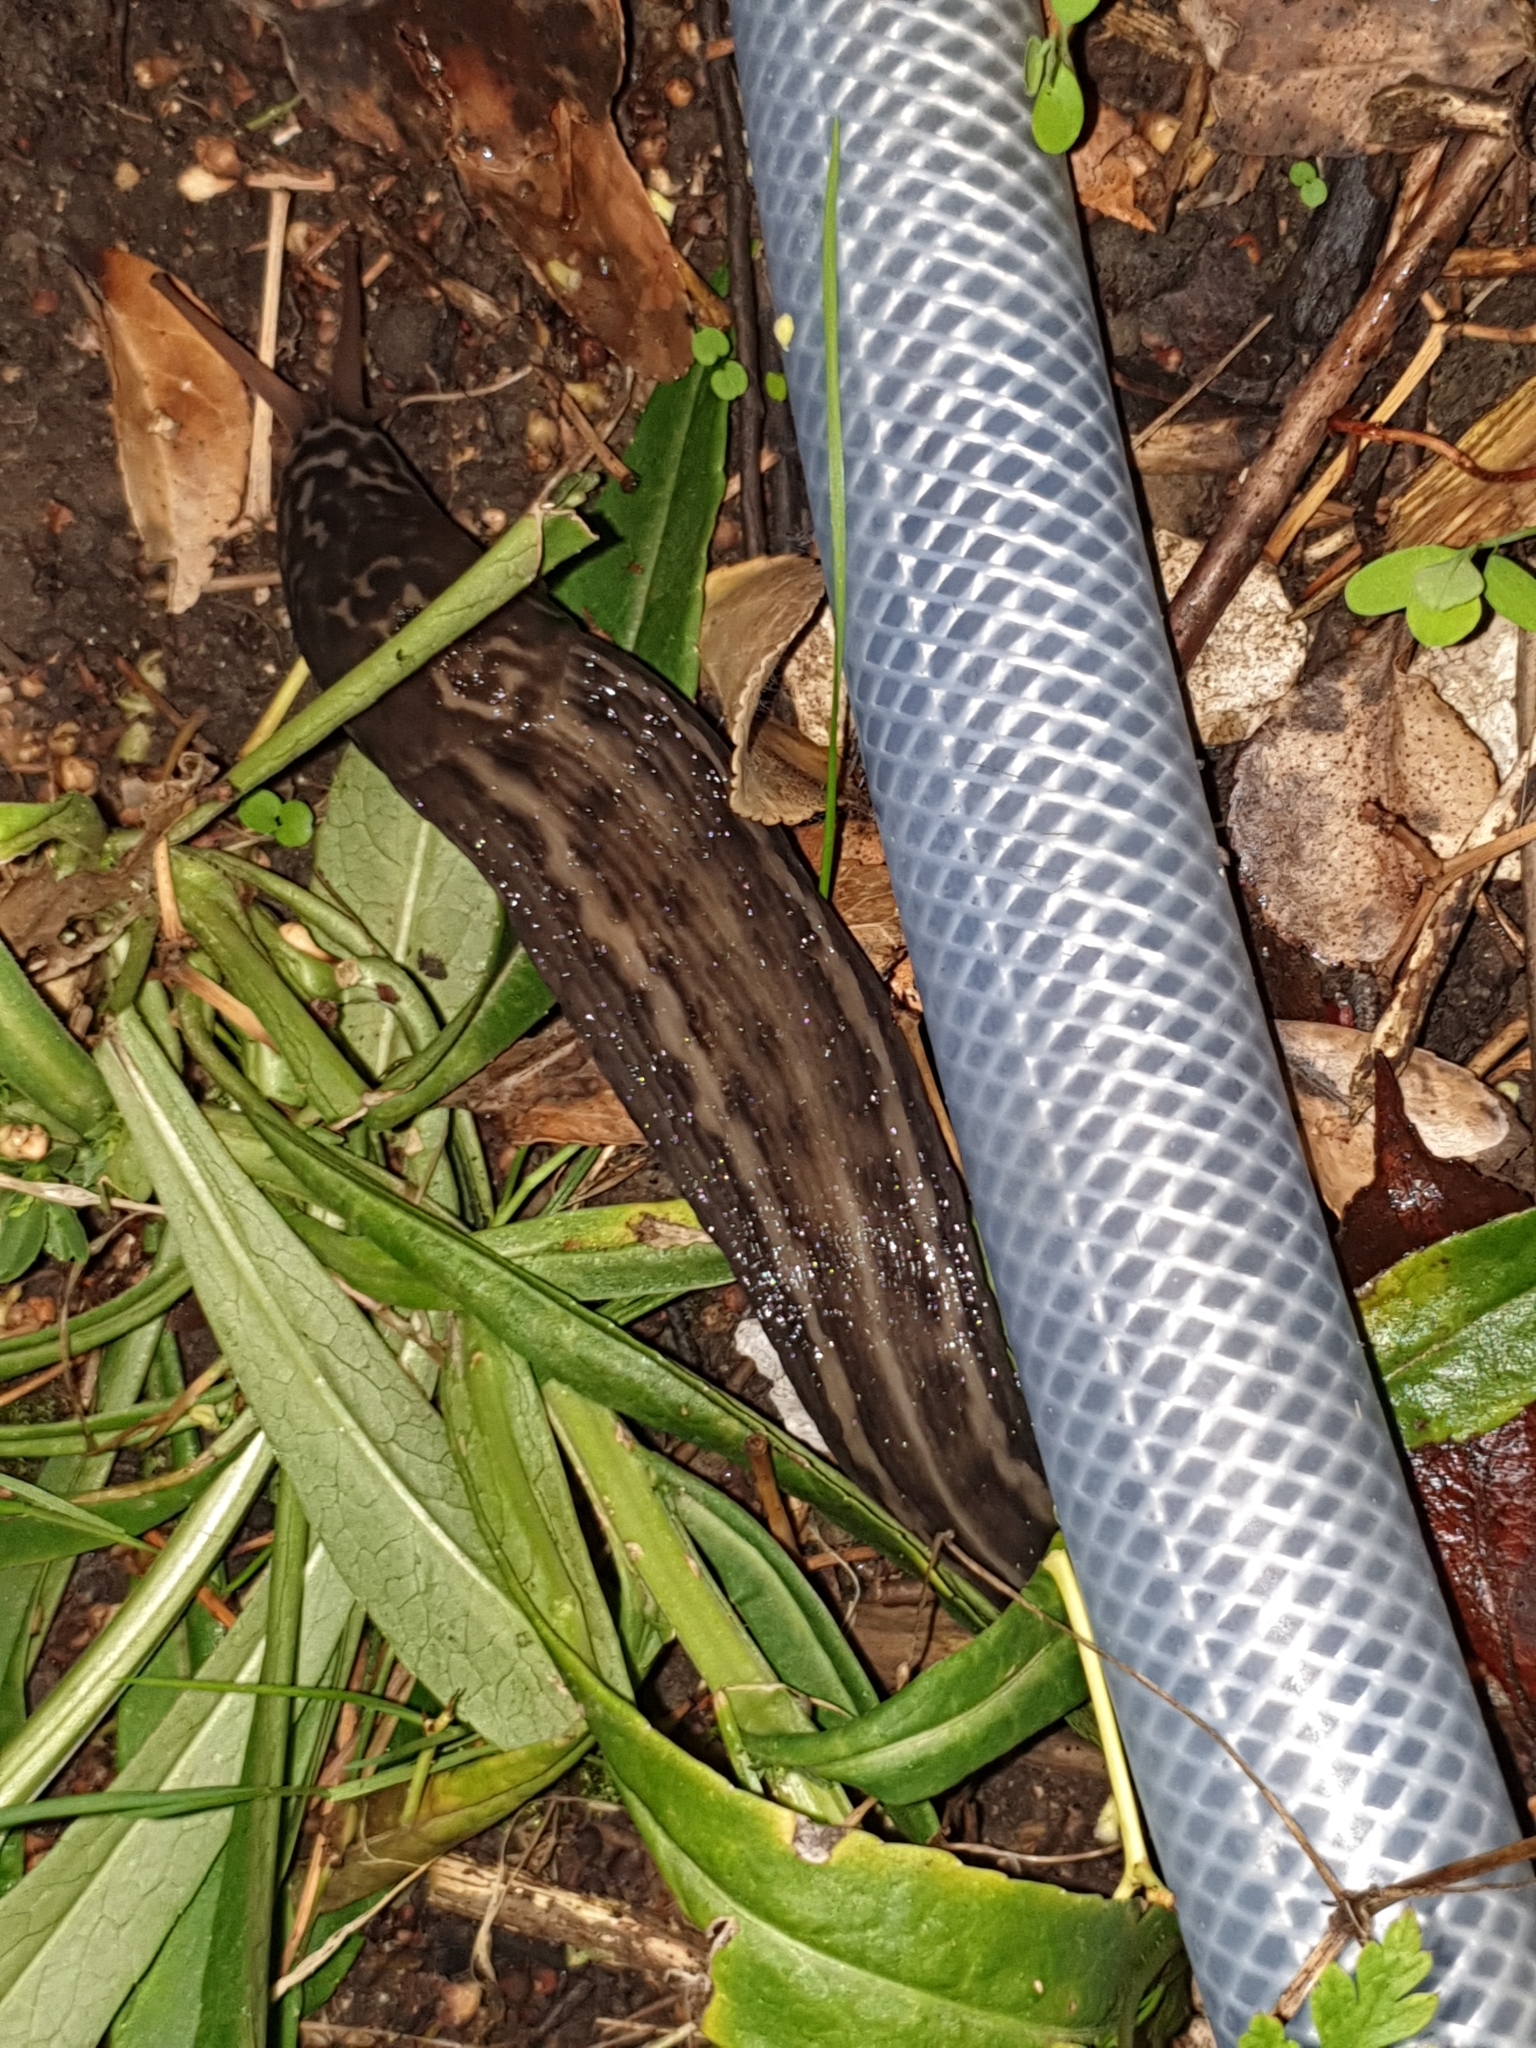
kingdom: Animalia
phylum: Mollusca
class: Gastropoda
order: Stylommatophora
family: Limacidae
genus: Limax
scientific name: Limax maximus
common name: Great grey slug
